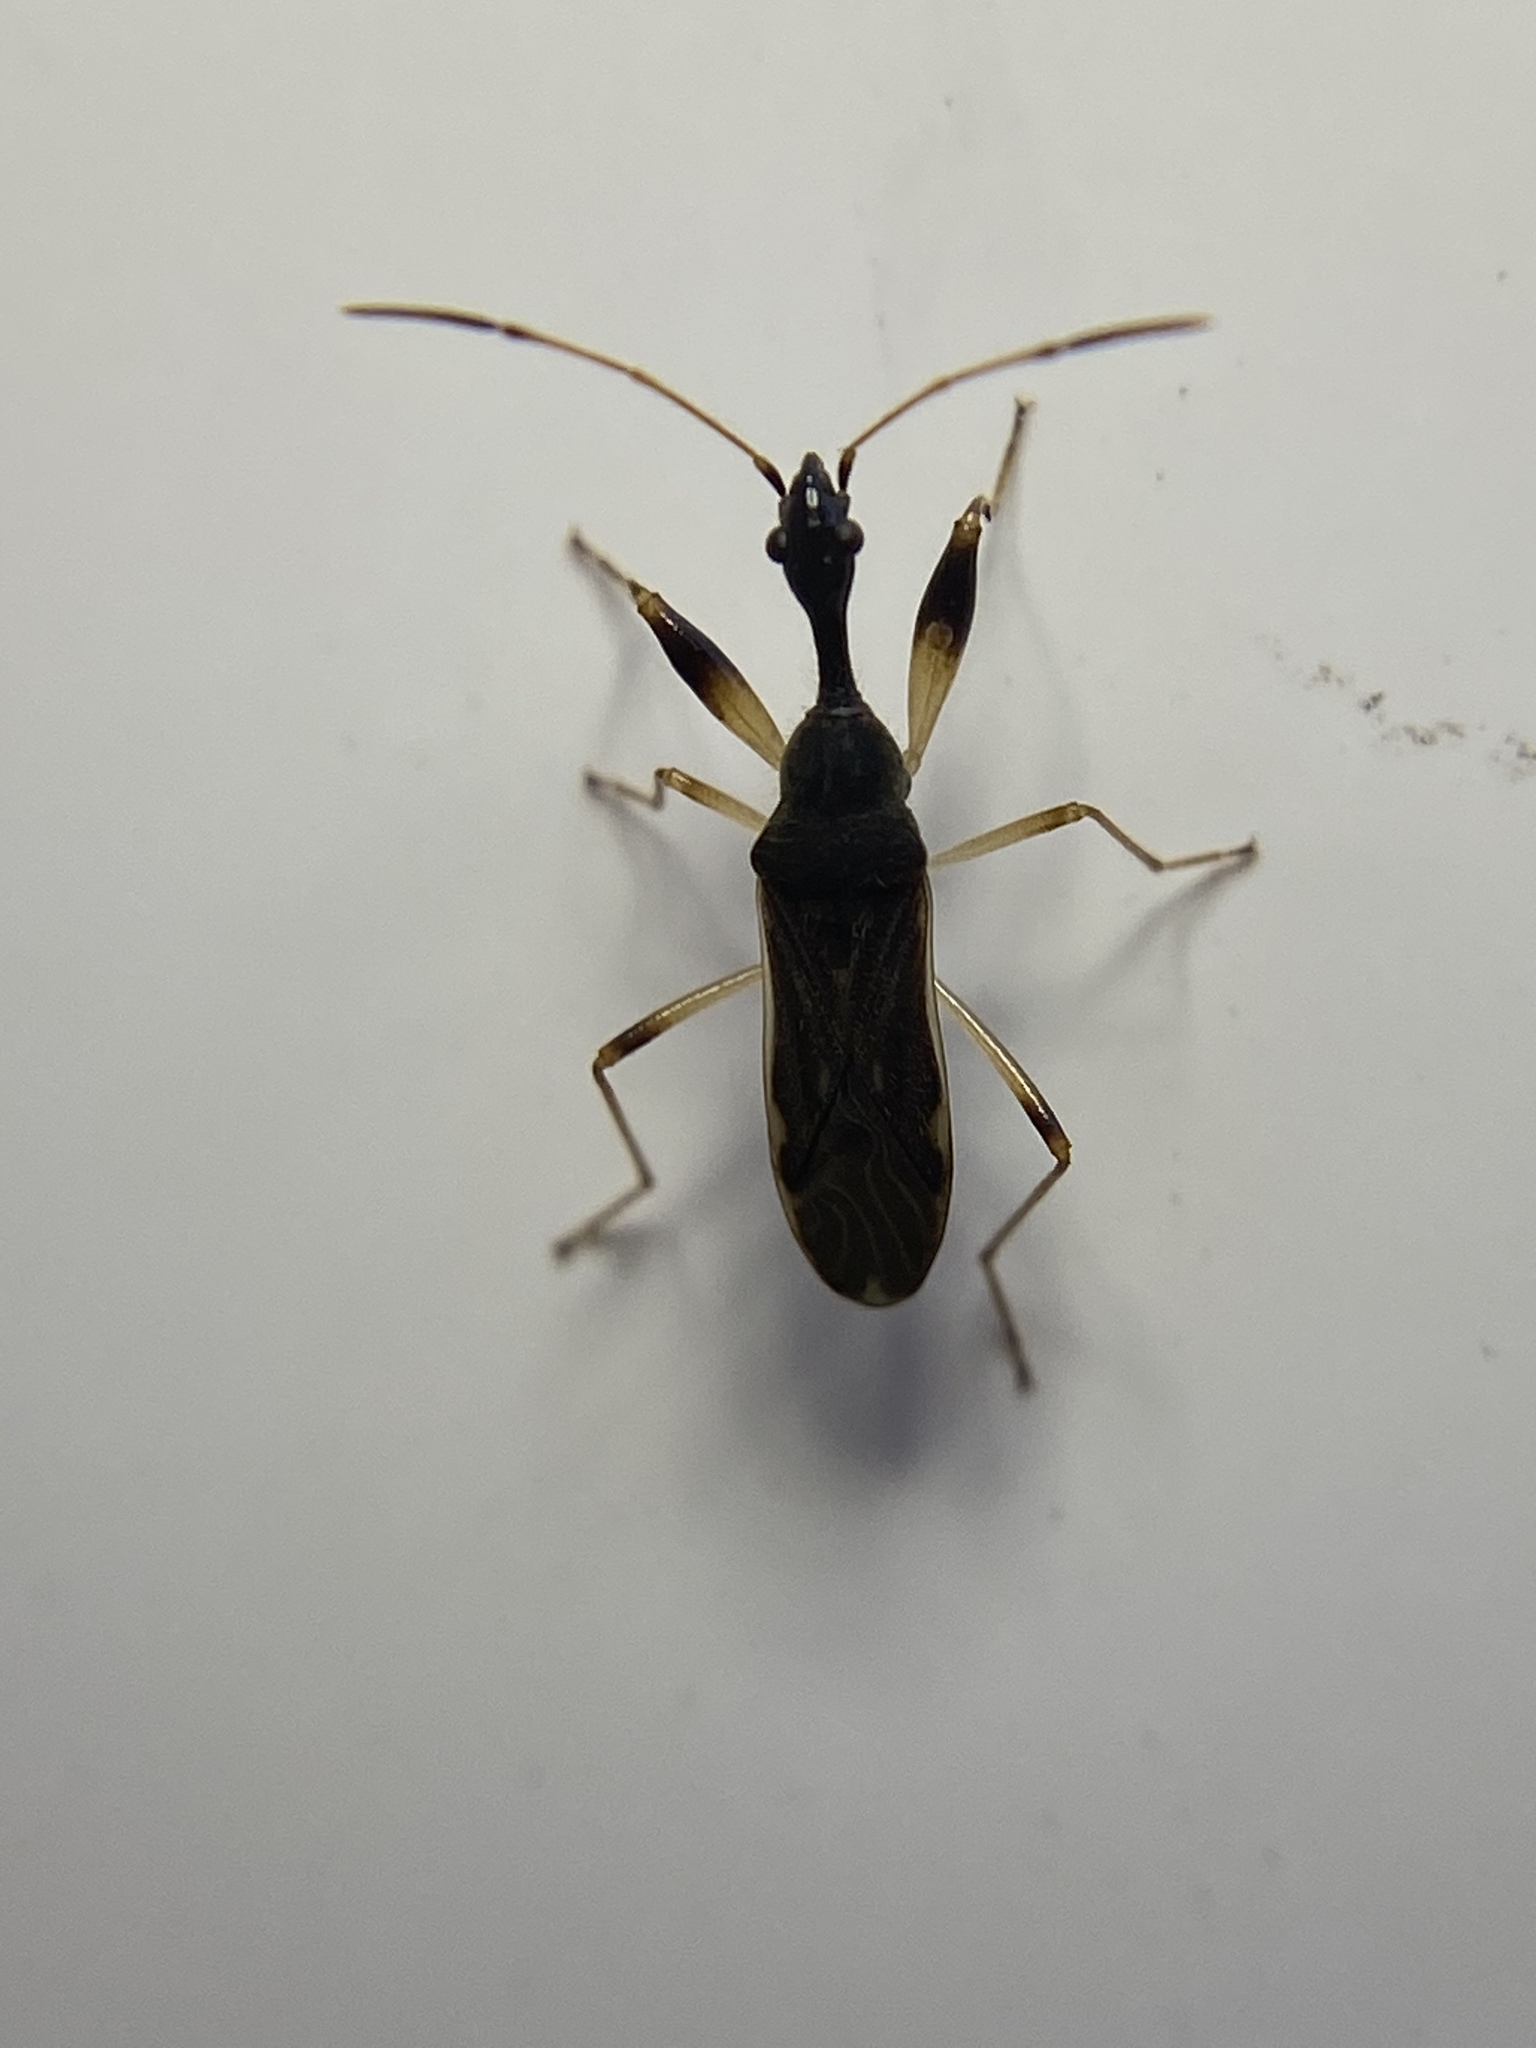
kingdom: Animalia
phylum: Arthropoda
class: Insecta
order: Hemiptera
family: Rhyparochromidae
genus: Myodocha
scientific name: Myodocha serripes
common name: Long-necked seed bug
